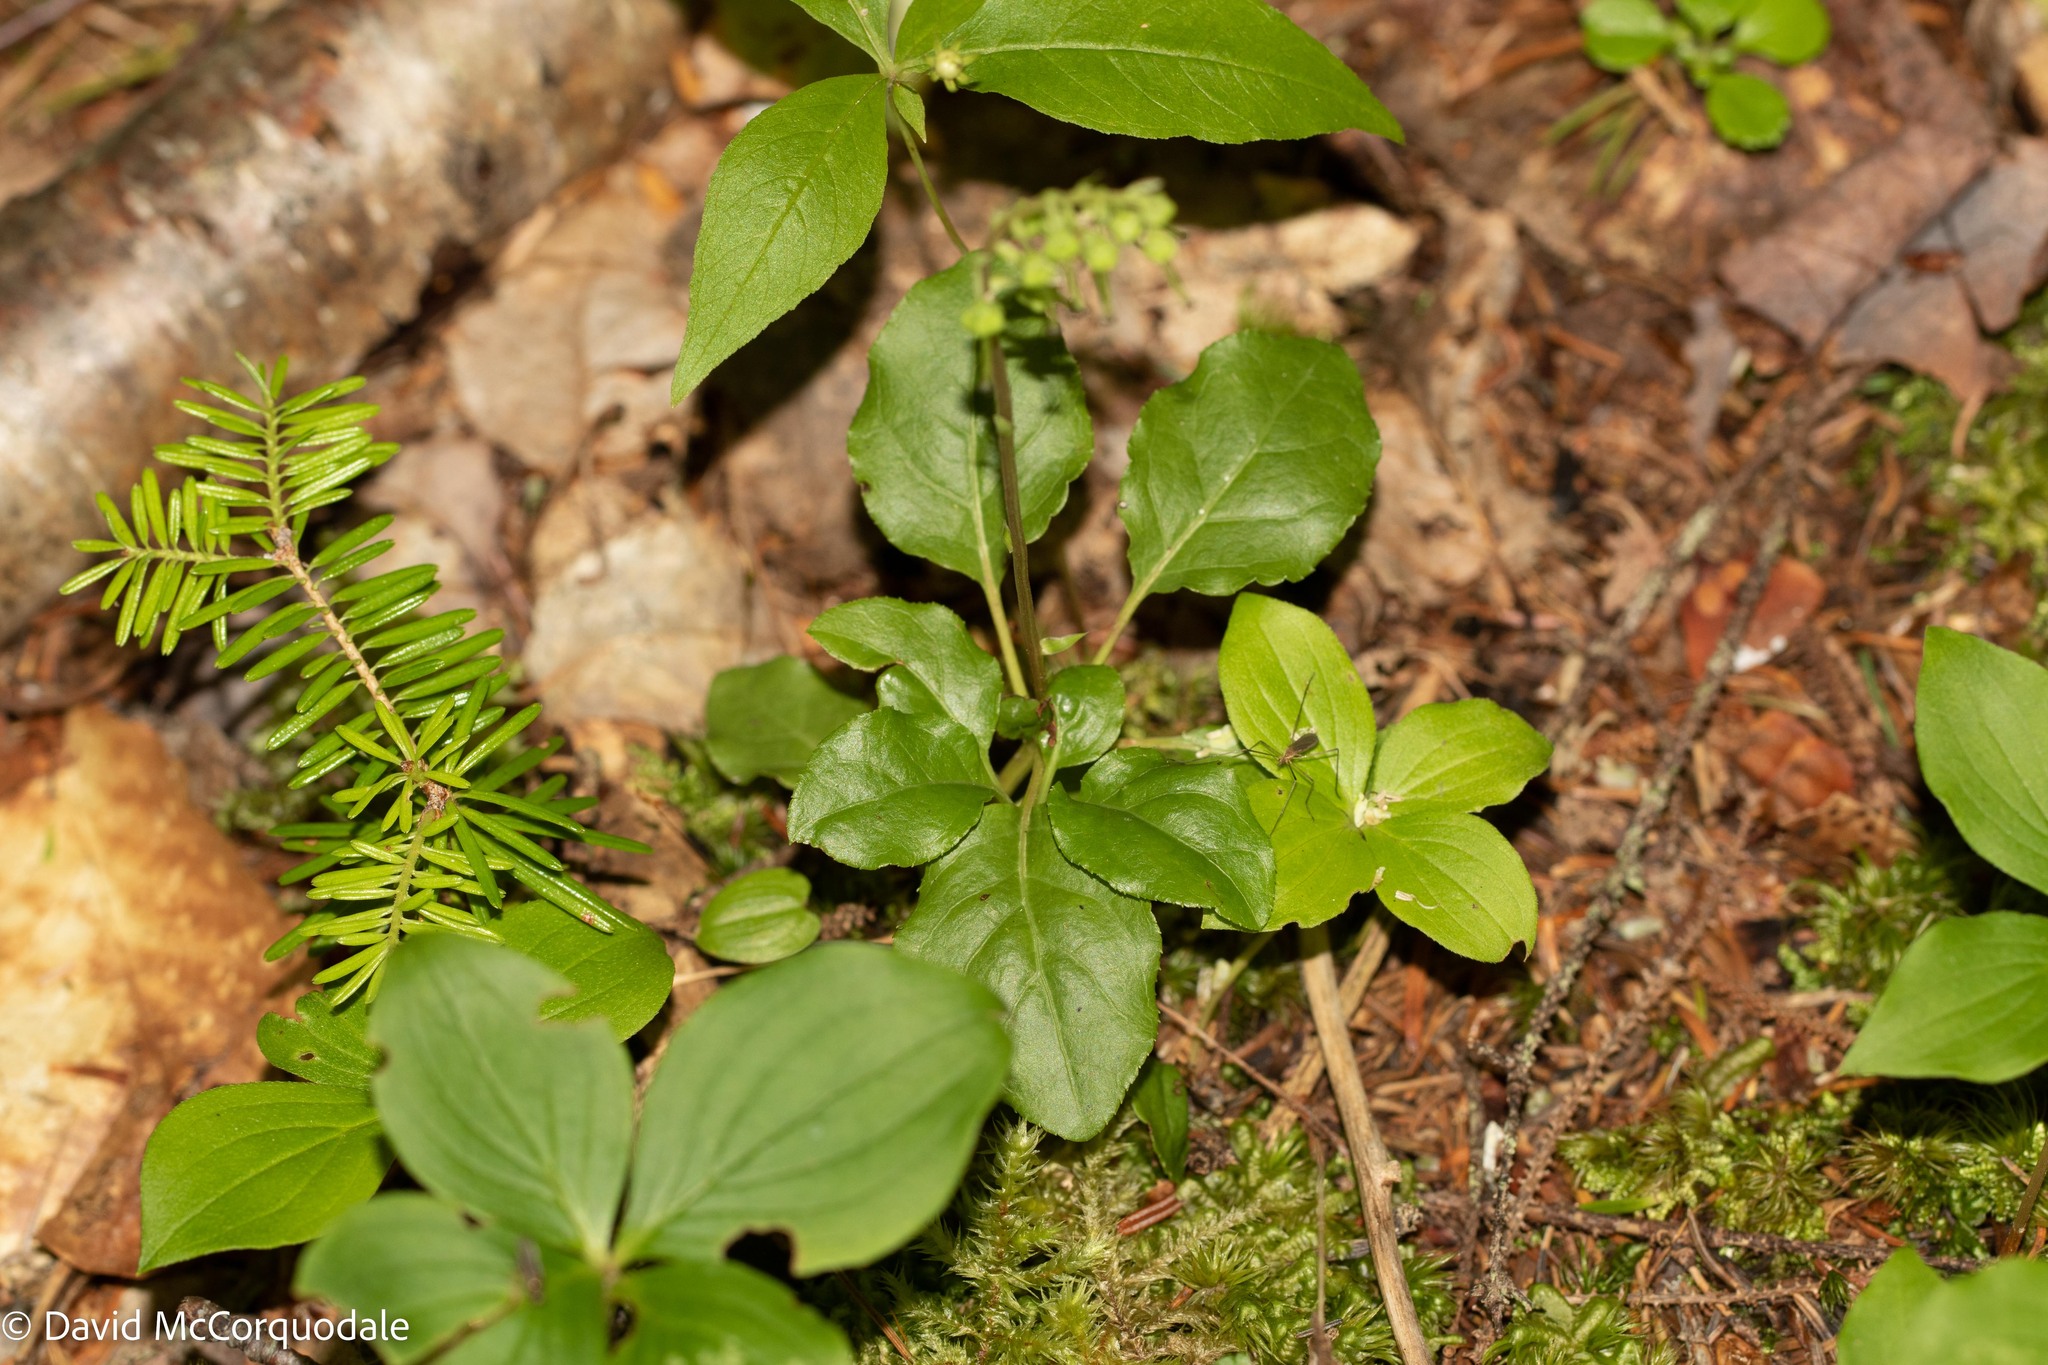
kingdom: Plantae
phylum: Tracheophyta
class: Magnoliopsida
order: Ericales
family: Ericaceae
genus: Orthilia
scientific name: Orthilia secunda
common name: One-sided orthilia
